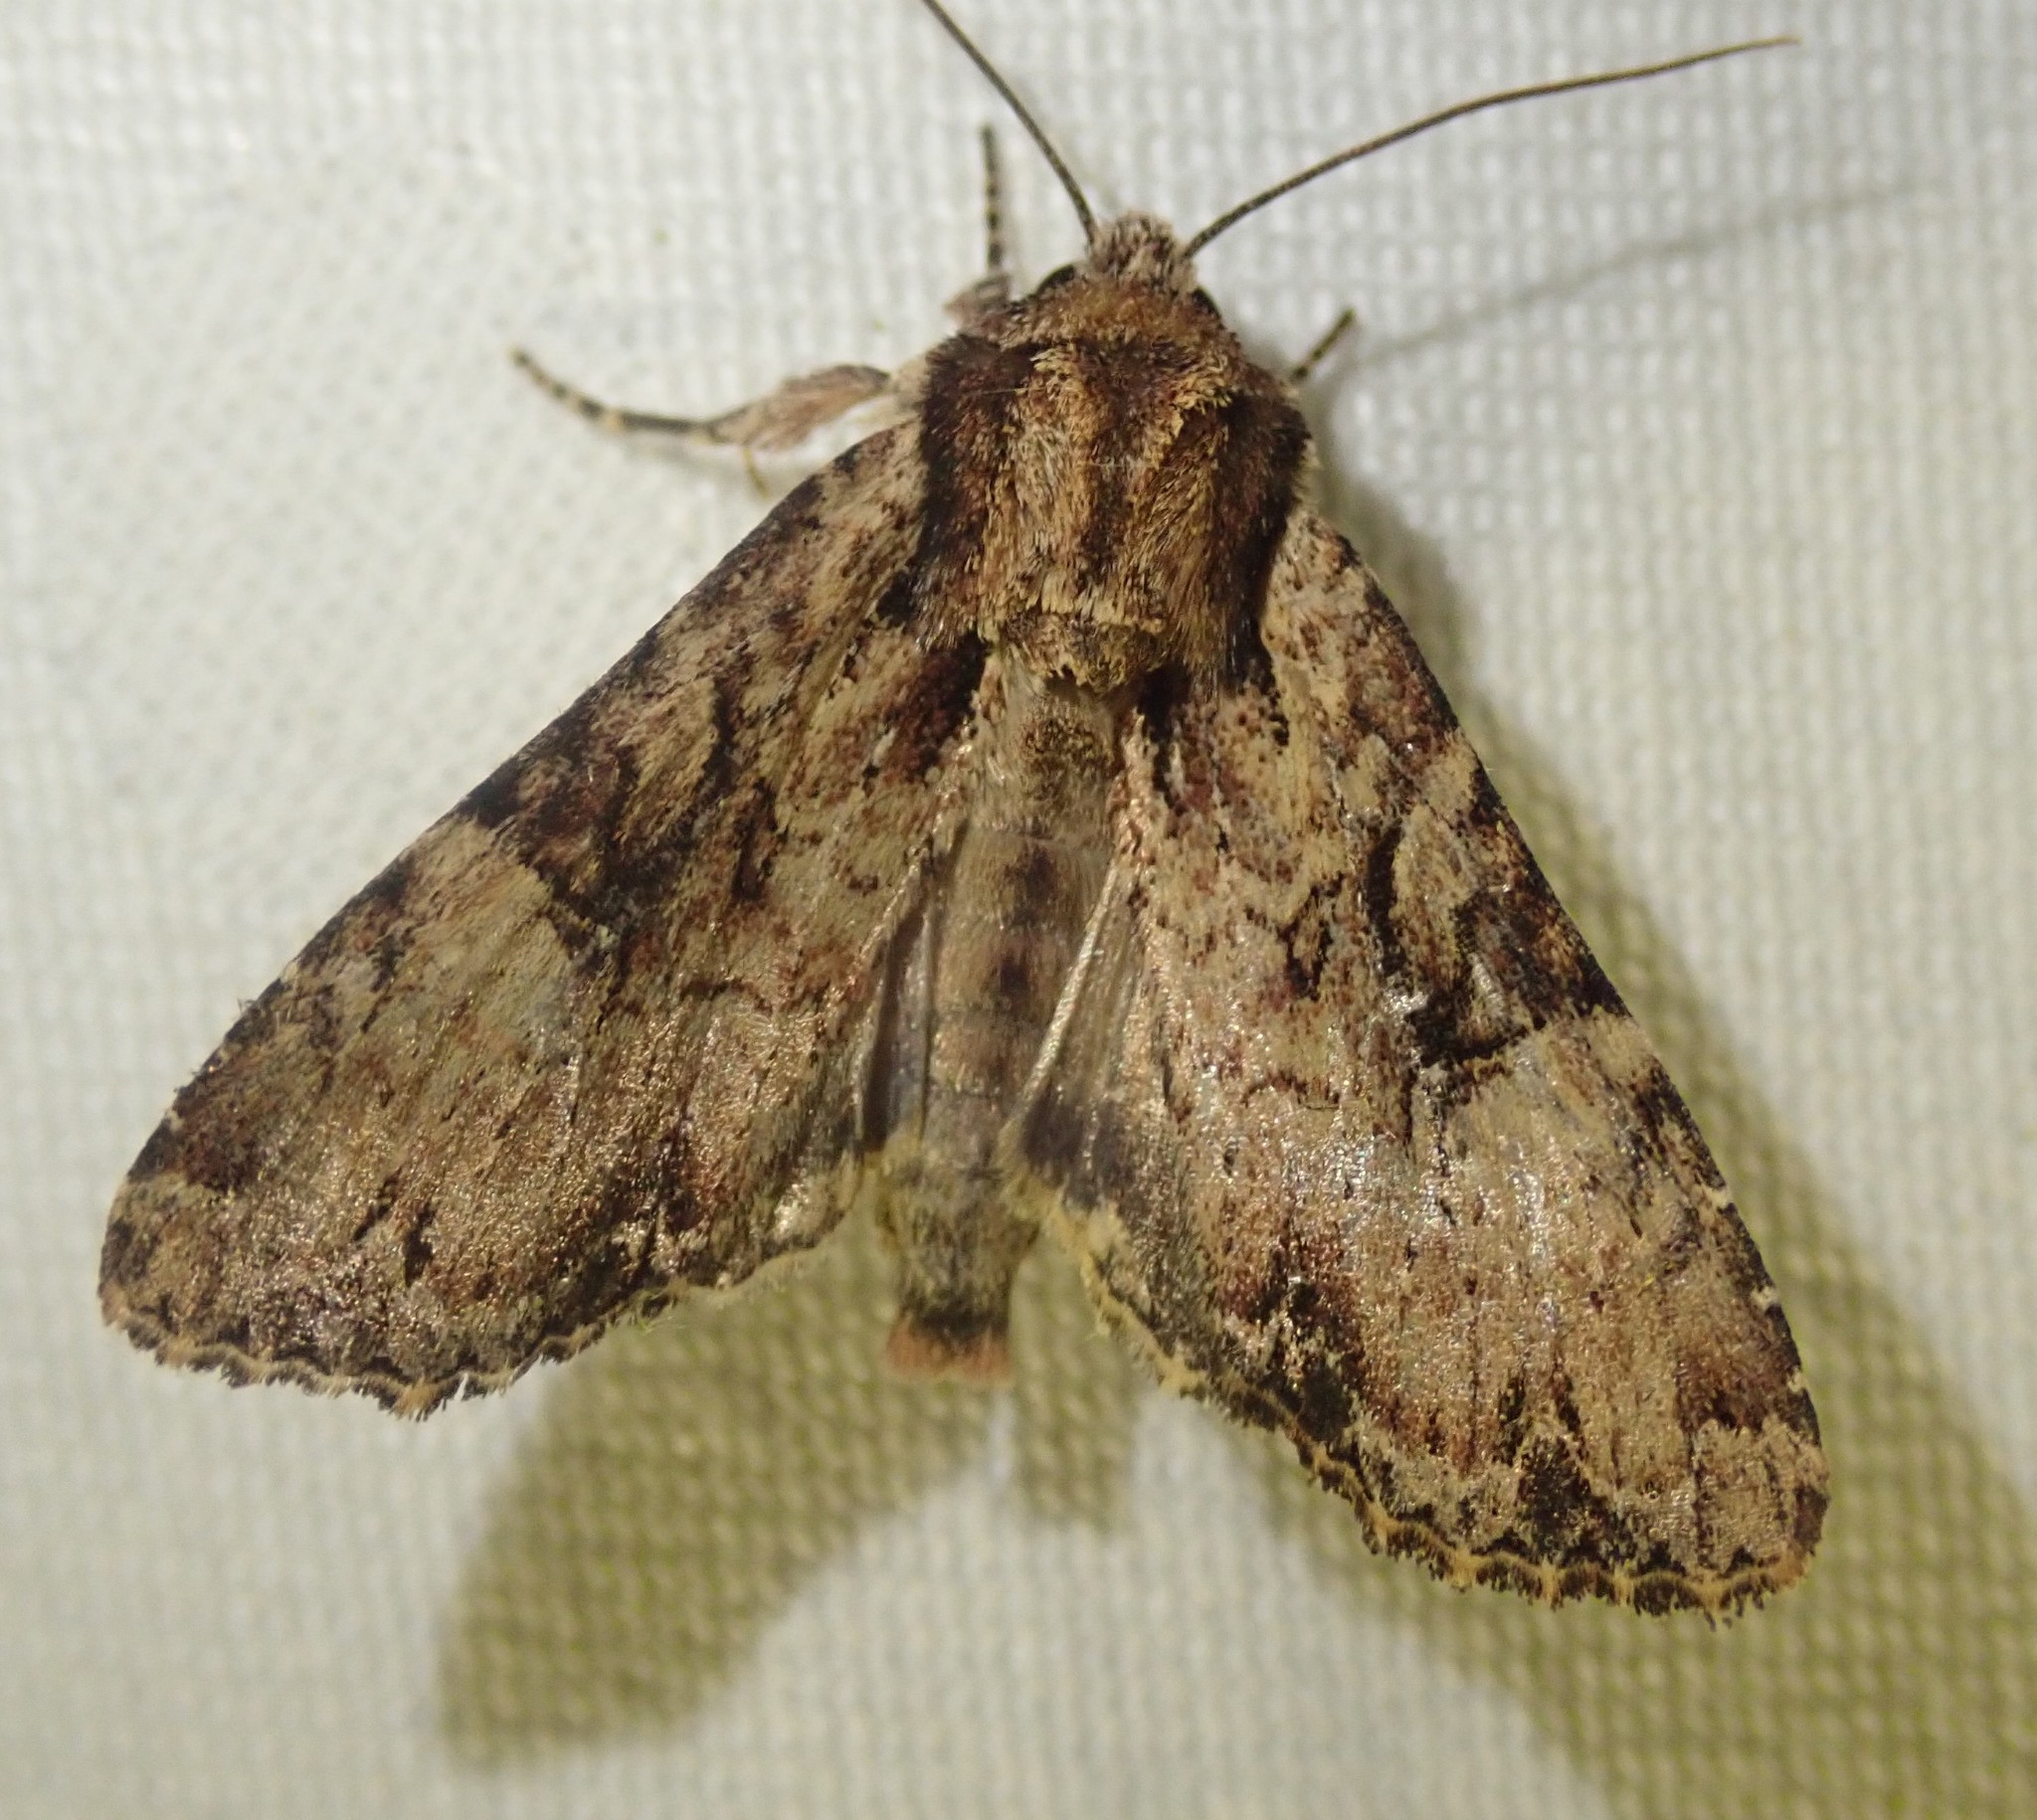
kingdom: Animalia
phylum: Arthropoda
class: Insecta
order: Lepidoptera
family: Noctuidae
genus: Apamea
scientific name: Apamea epomidion
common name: Clouded brindle
